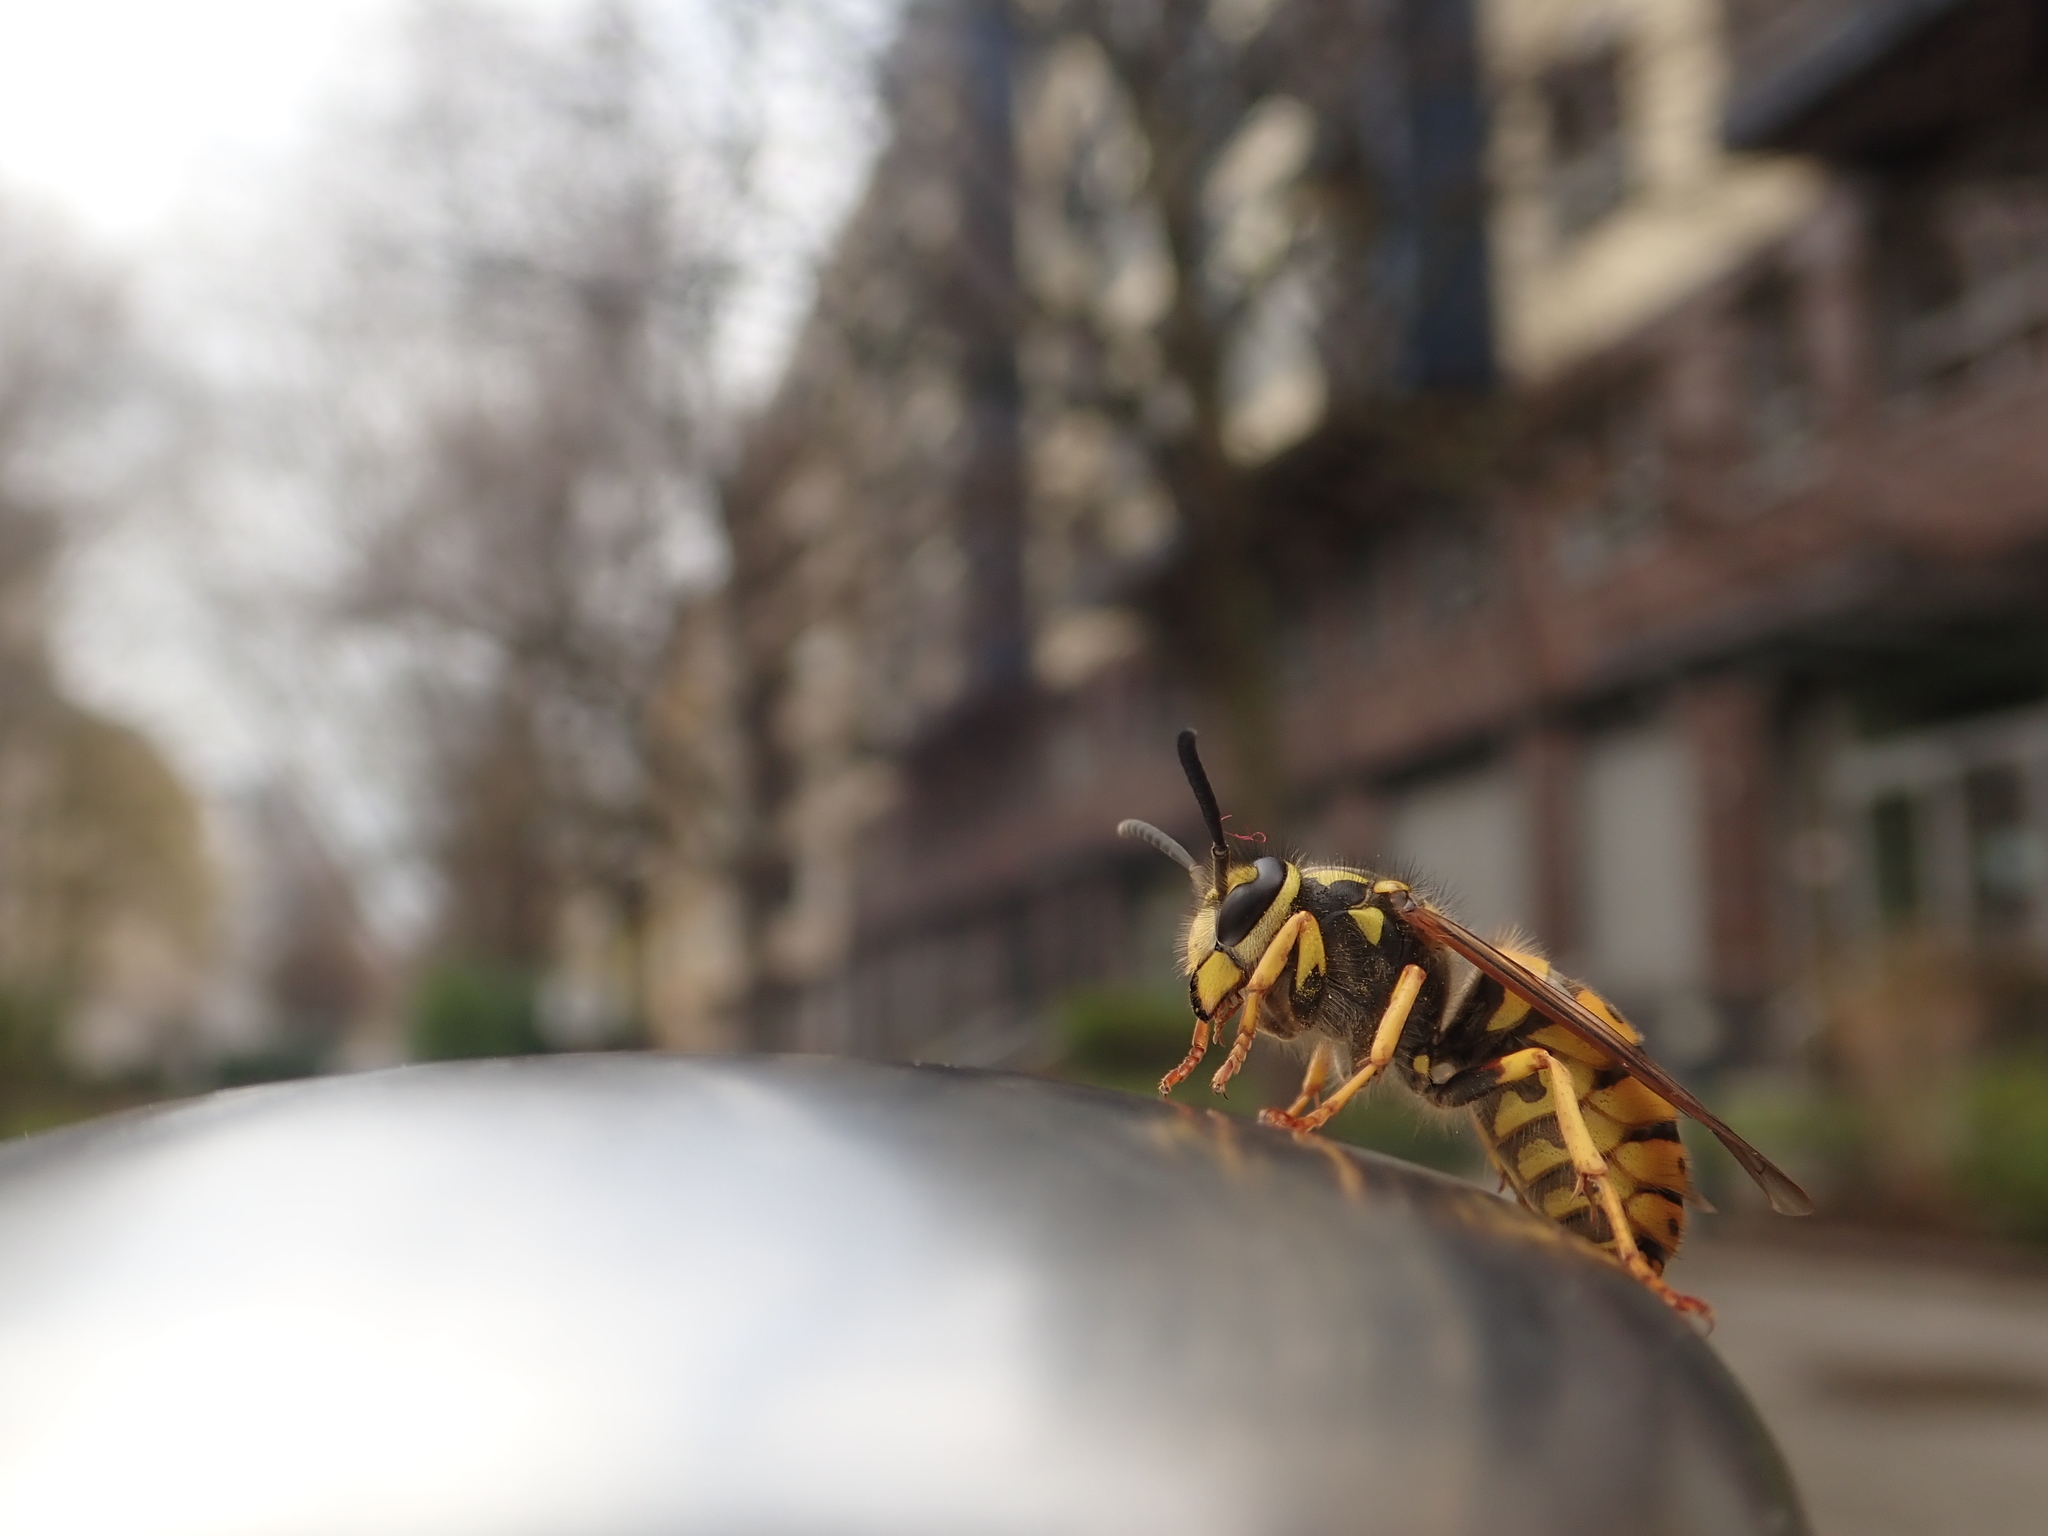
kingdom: Animalia
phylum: Arthropoda
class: Insecta
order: Hymenoptera
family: Vespidae
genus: Vespula
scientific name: Vespula germanica
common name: German wasp
